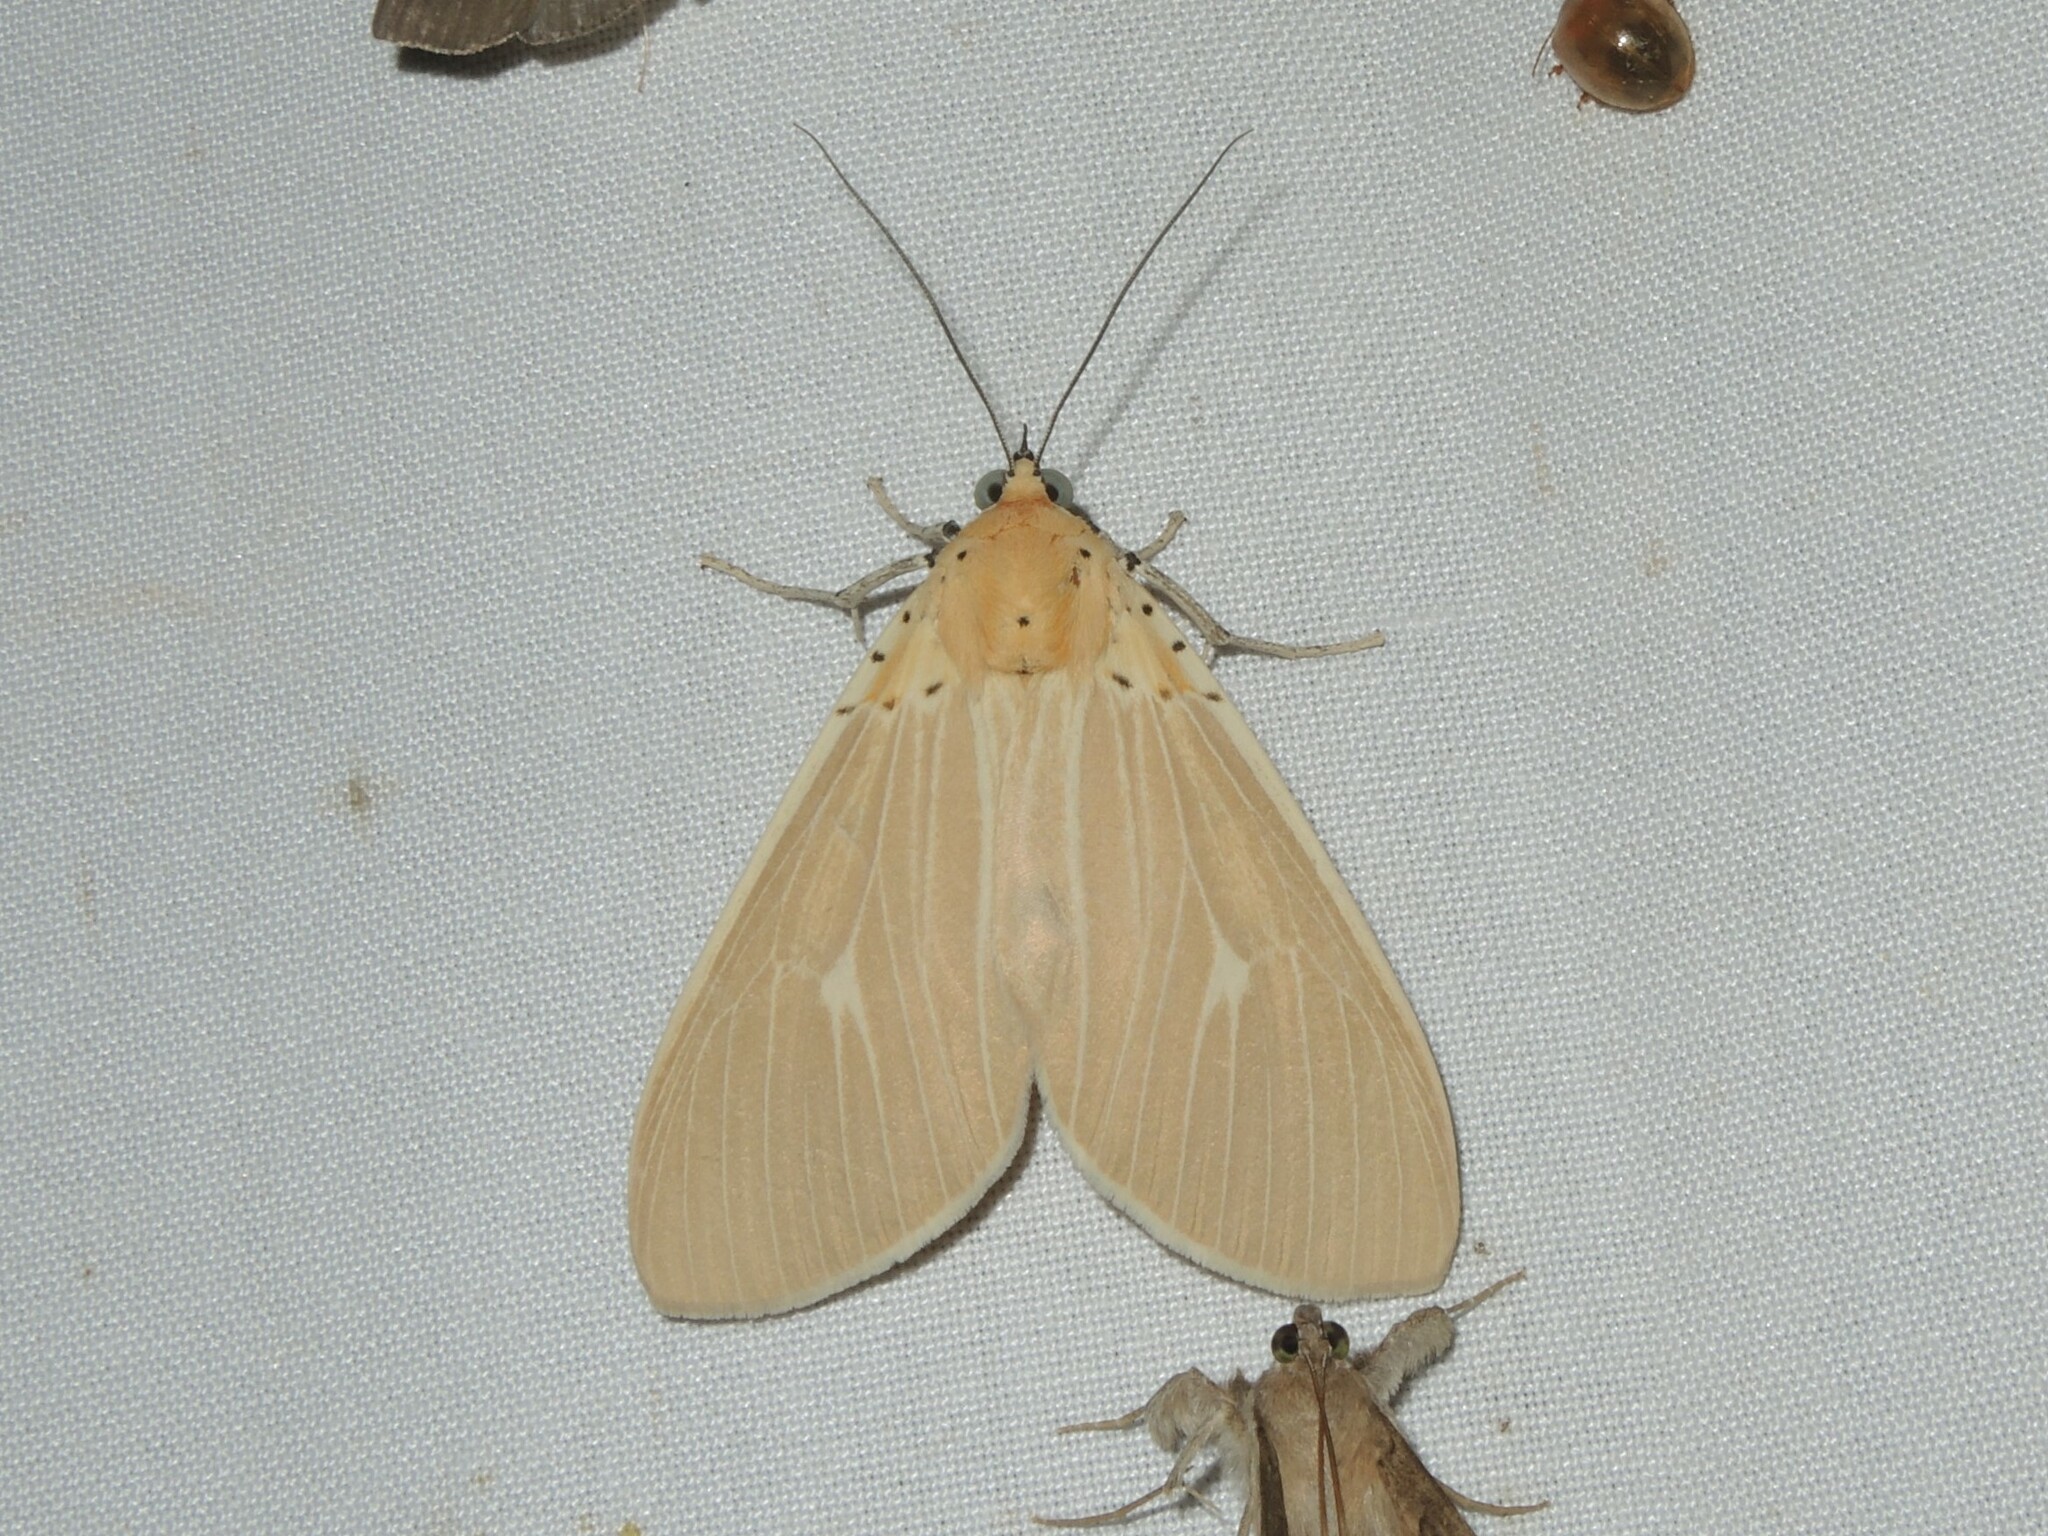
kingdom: Animalia
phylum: Arthropoda
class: Insecta
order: Lepidoptera
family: Erebidae
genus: Asota
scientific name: Asota producta
